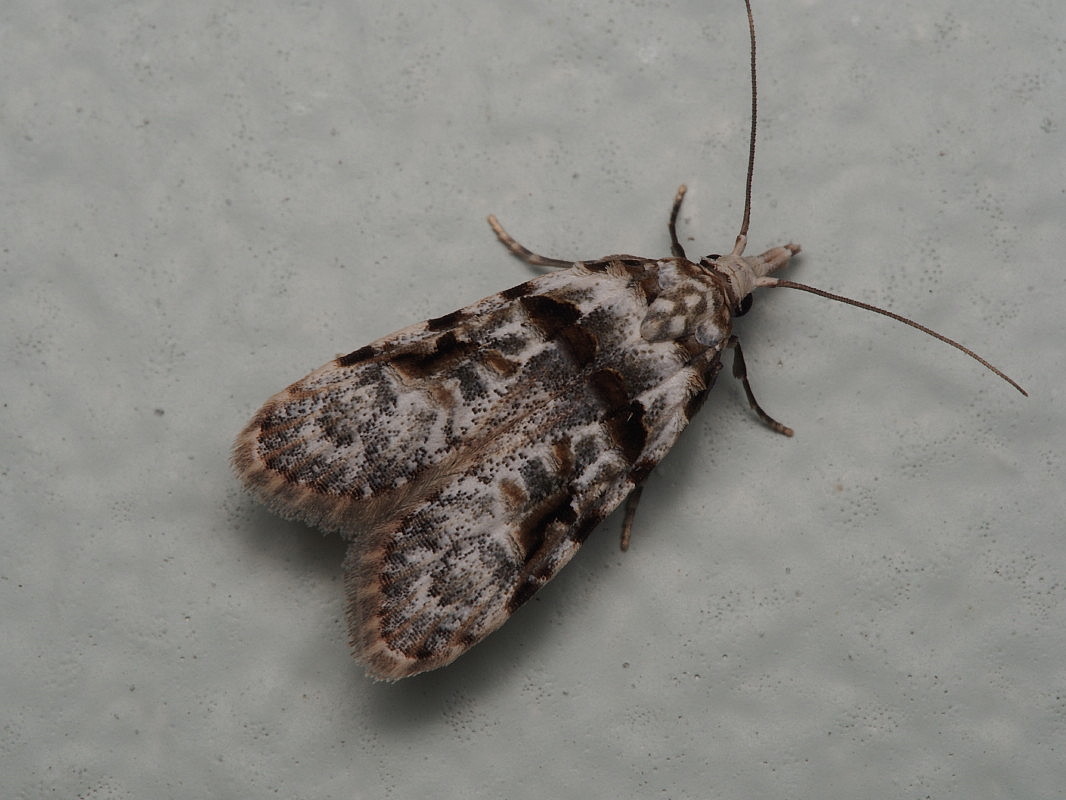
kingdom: Animalia
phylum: Arthropoda
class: Insecta
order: Lepidoptera
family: Carposinidae
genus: Coscinoptycha
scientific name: Coscinoptycha improbana
